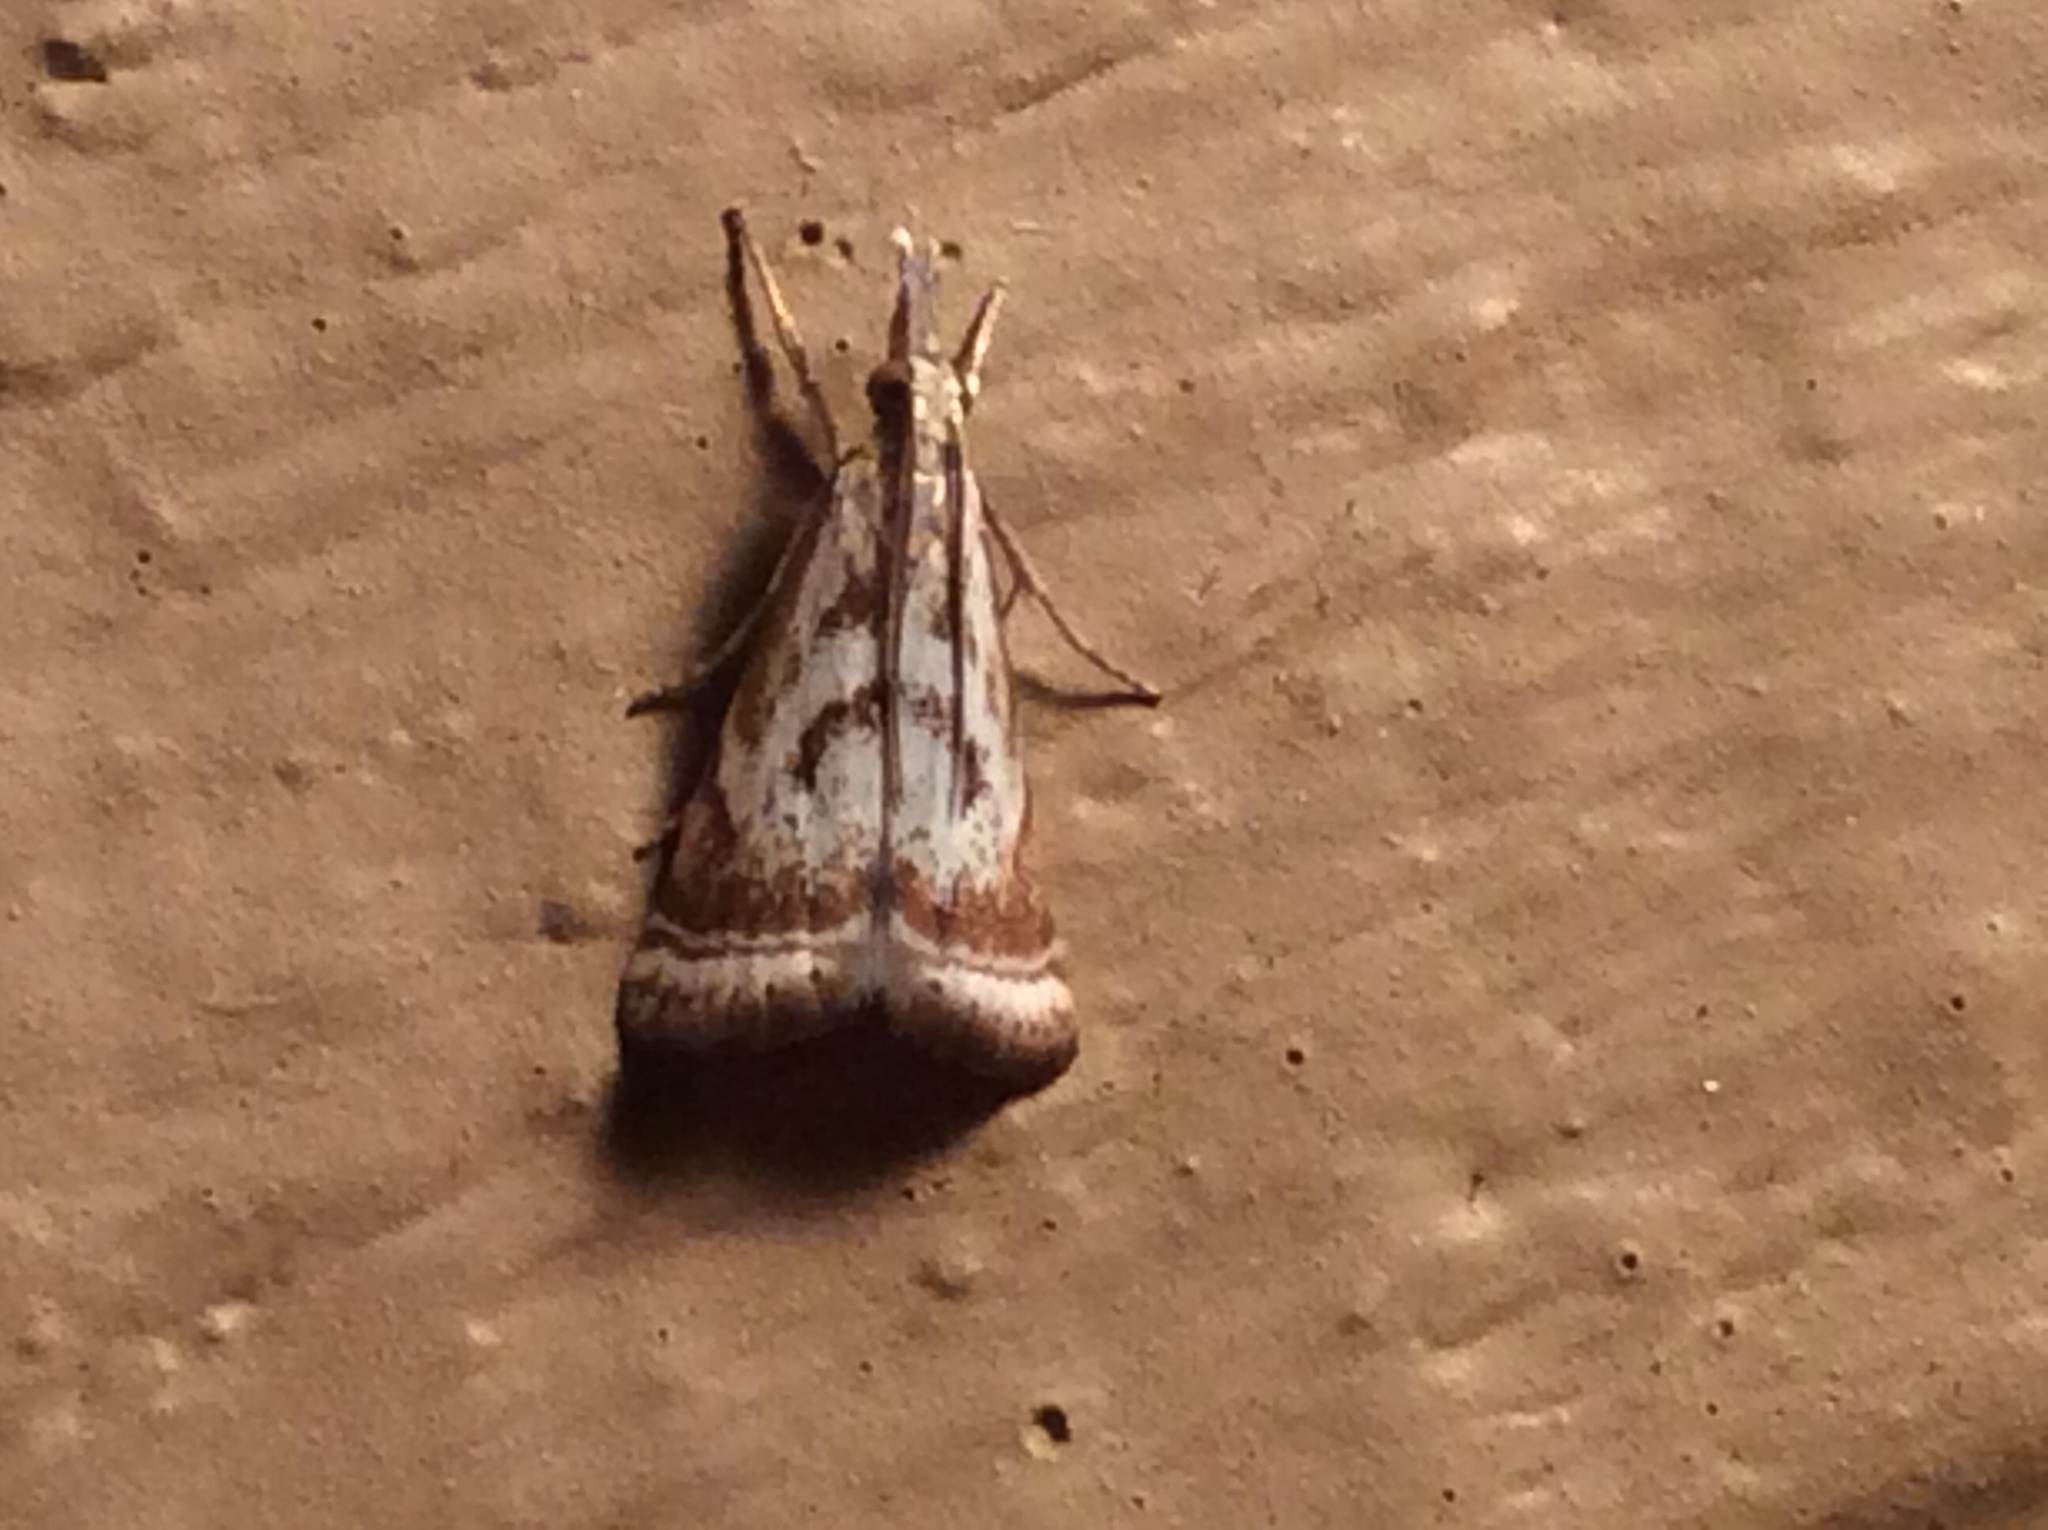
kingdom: Animalia
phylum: Arthropoda
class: Insecta
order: Lepidoptera
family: Crambidae
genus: Microcrambus
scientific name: Microcrambus elegans
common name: Elegant grass-veneer
